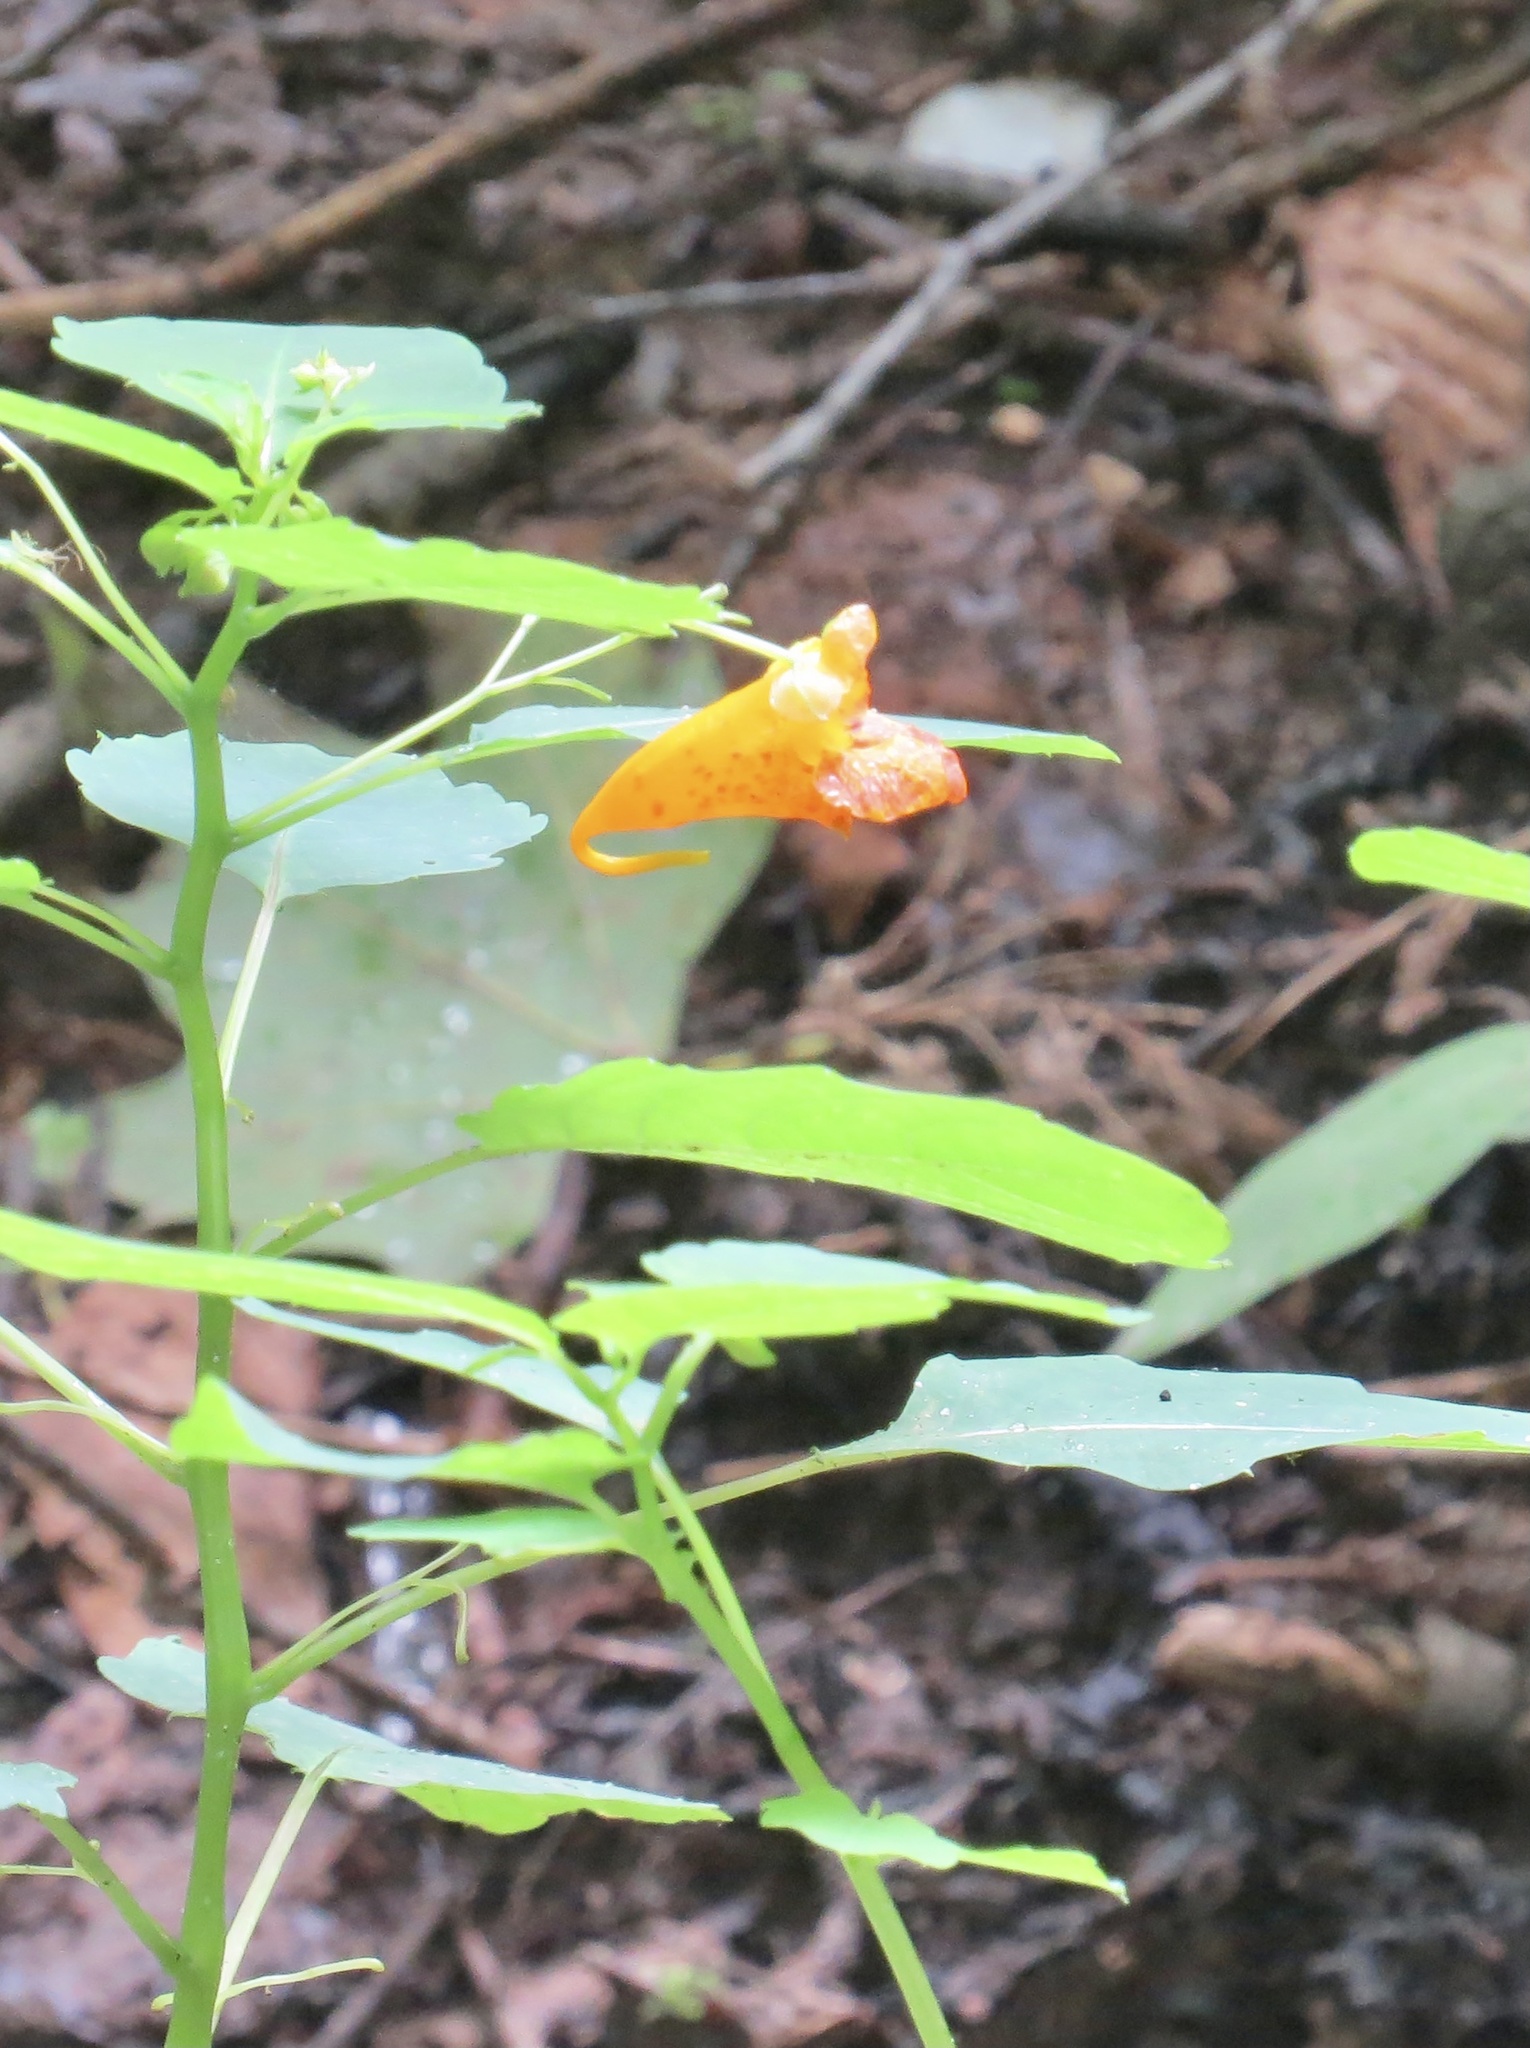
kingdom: Plantae
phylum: Tracheophyta
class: Magnoliopsida
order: Ericales
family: Balsaminaceae
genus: Impatiens
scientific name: Impatiens capensis
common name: Orange balsam
